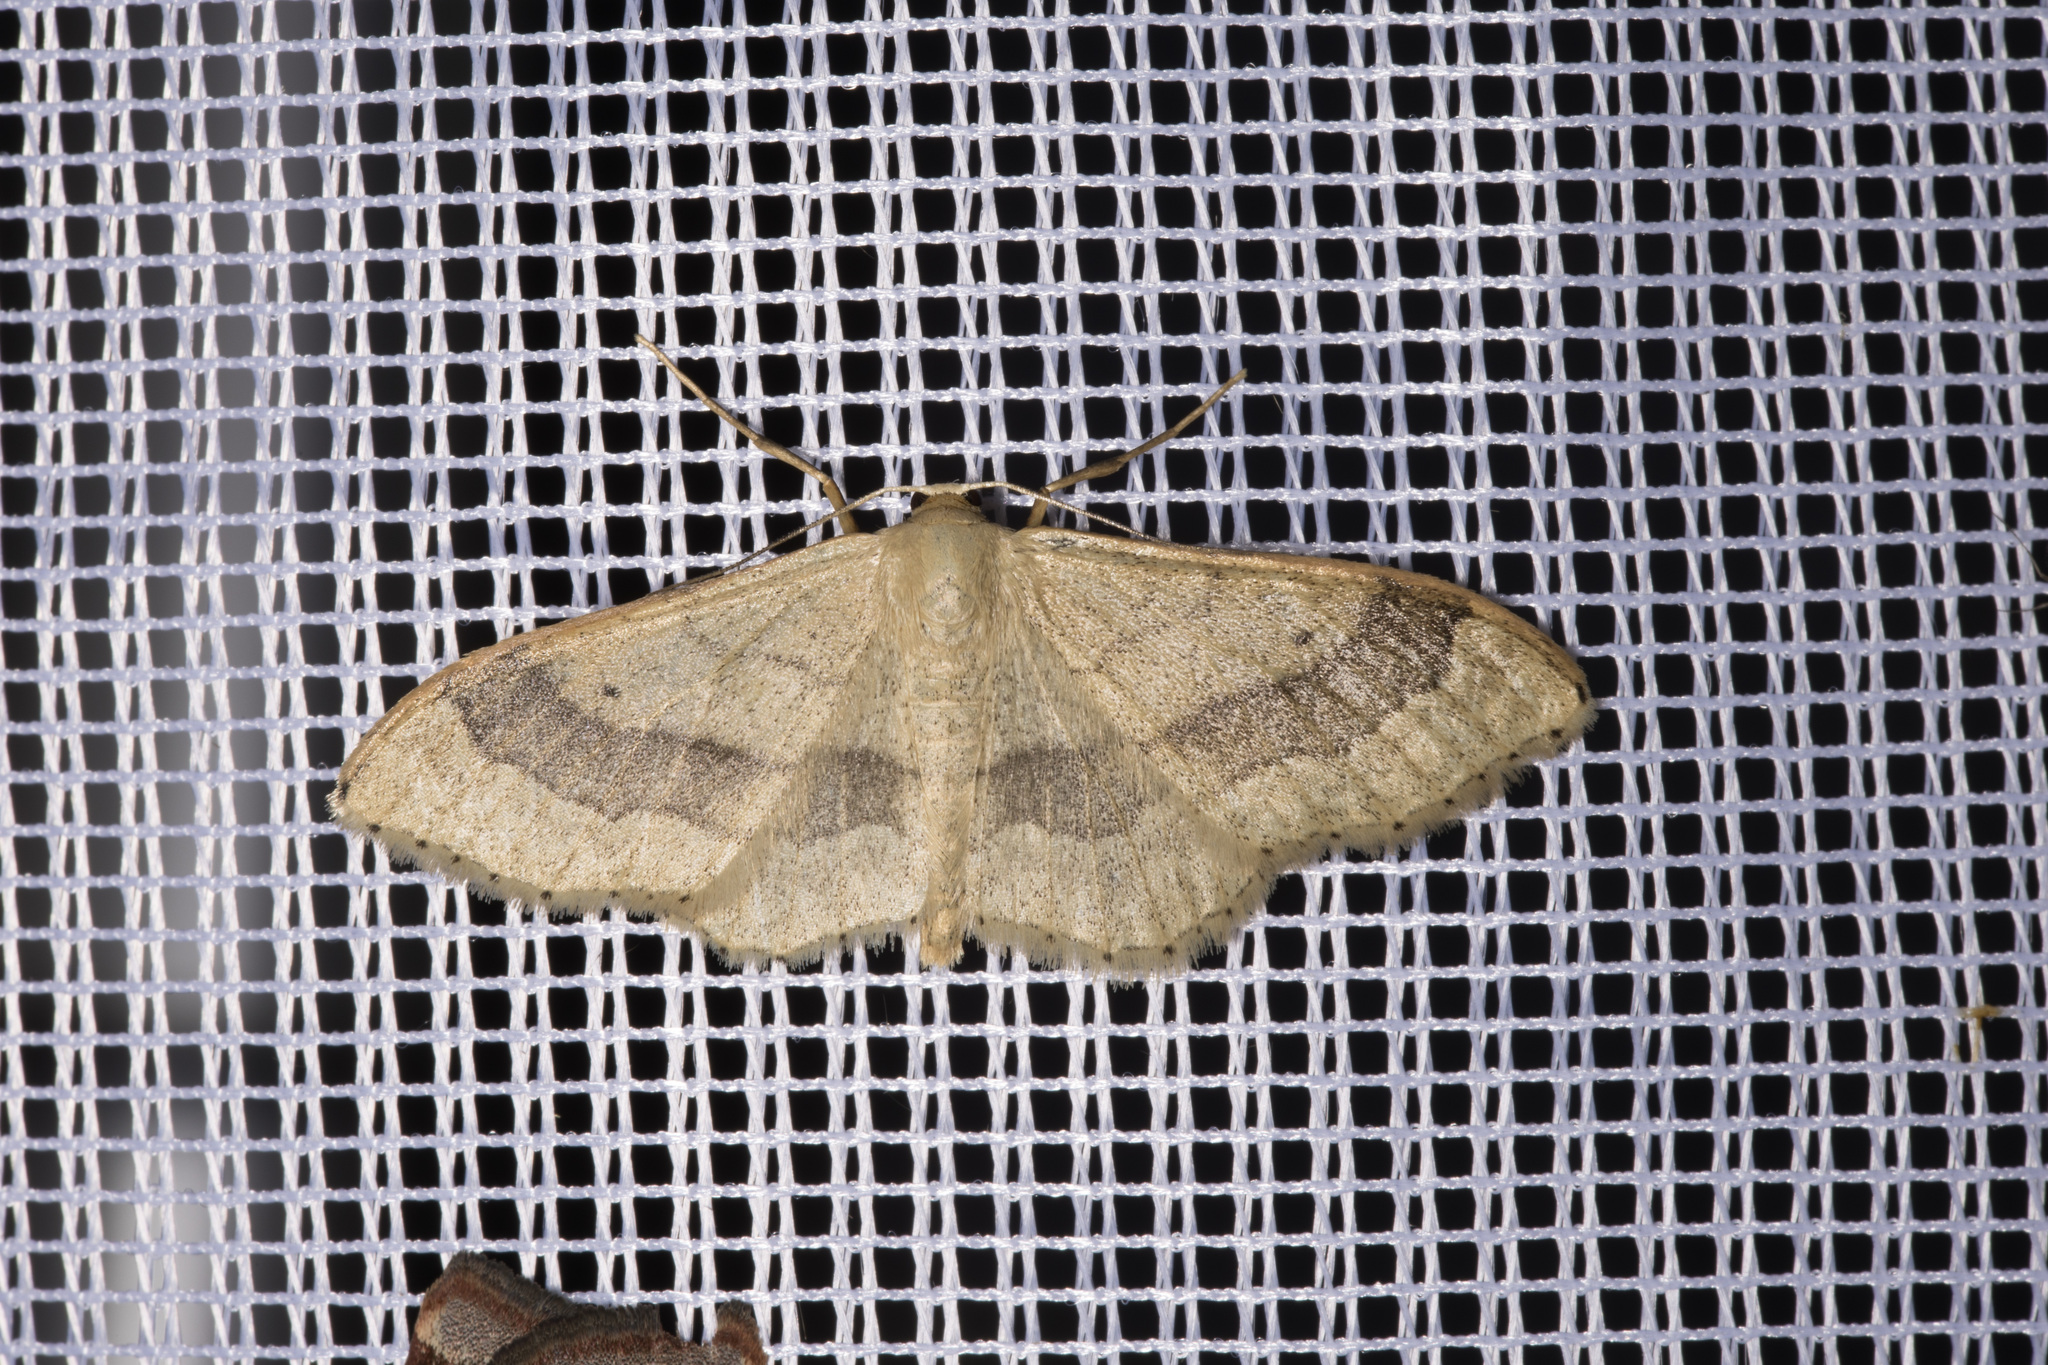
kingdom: Animalia
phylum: Arthropoda
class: Insecta
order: Lepidoptera
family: Geometridae
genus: Idaea
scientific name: Idaea aversata
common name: Riband wave
